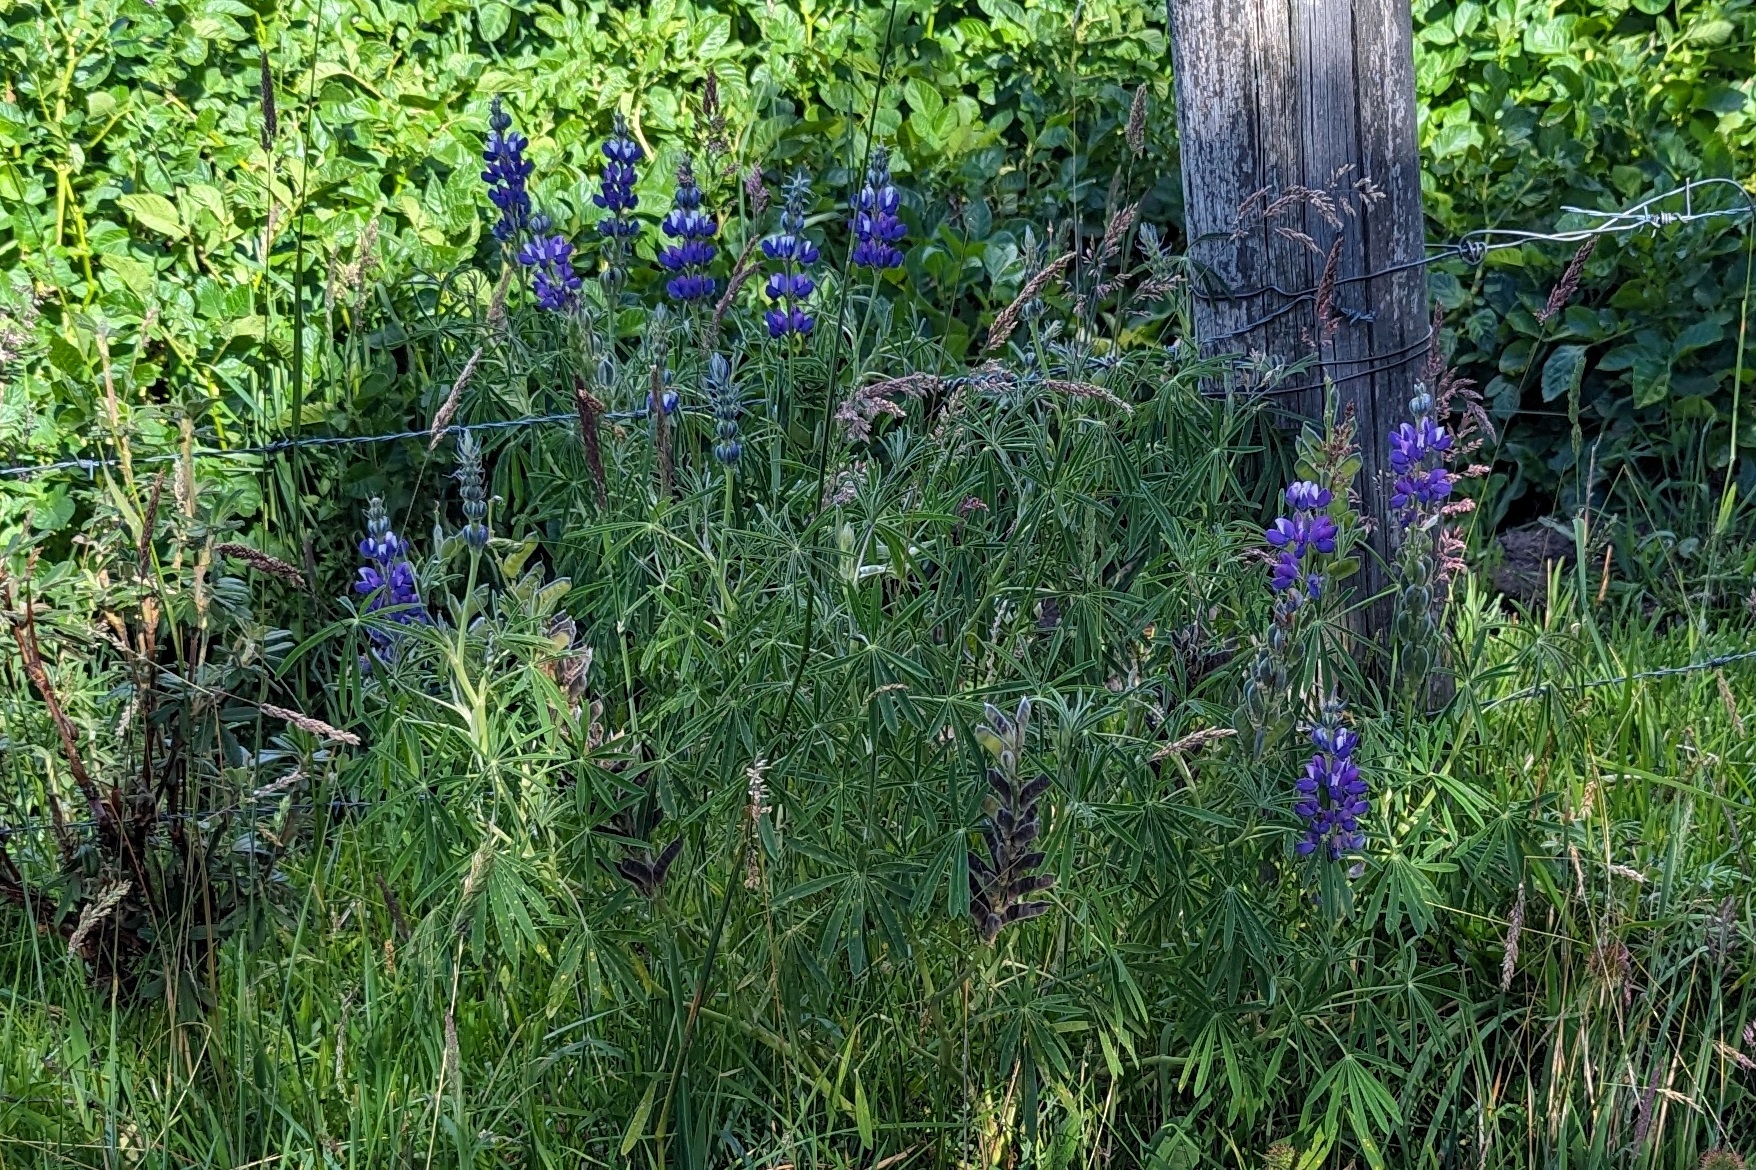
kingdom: Plantae
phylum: Tracheophyta
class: Magnoliopsida
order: Fabales
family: Fabaceae
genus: Lupinus
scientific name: Lupinus pubescens
